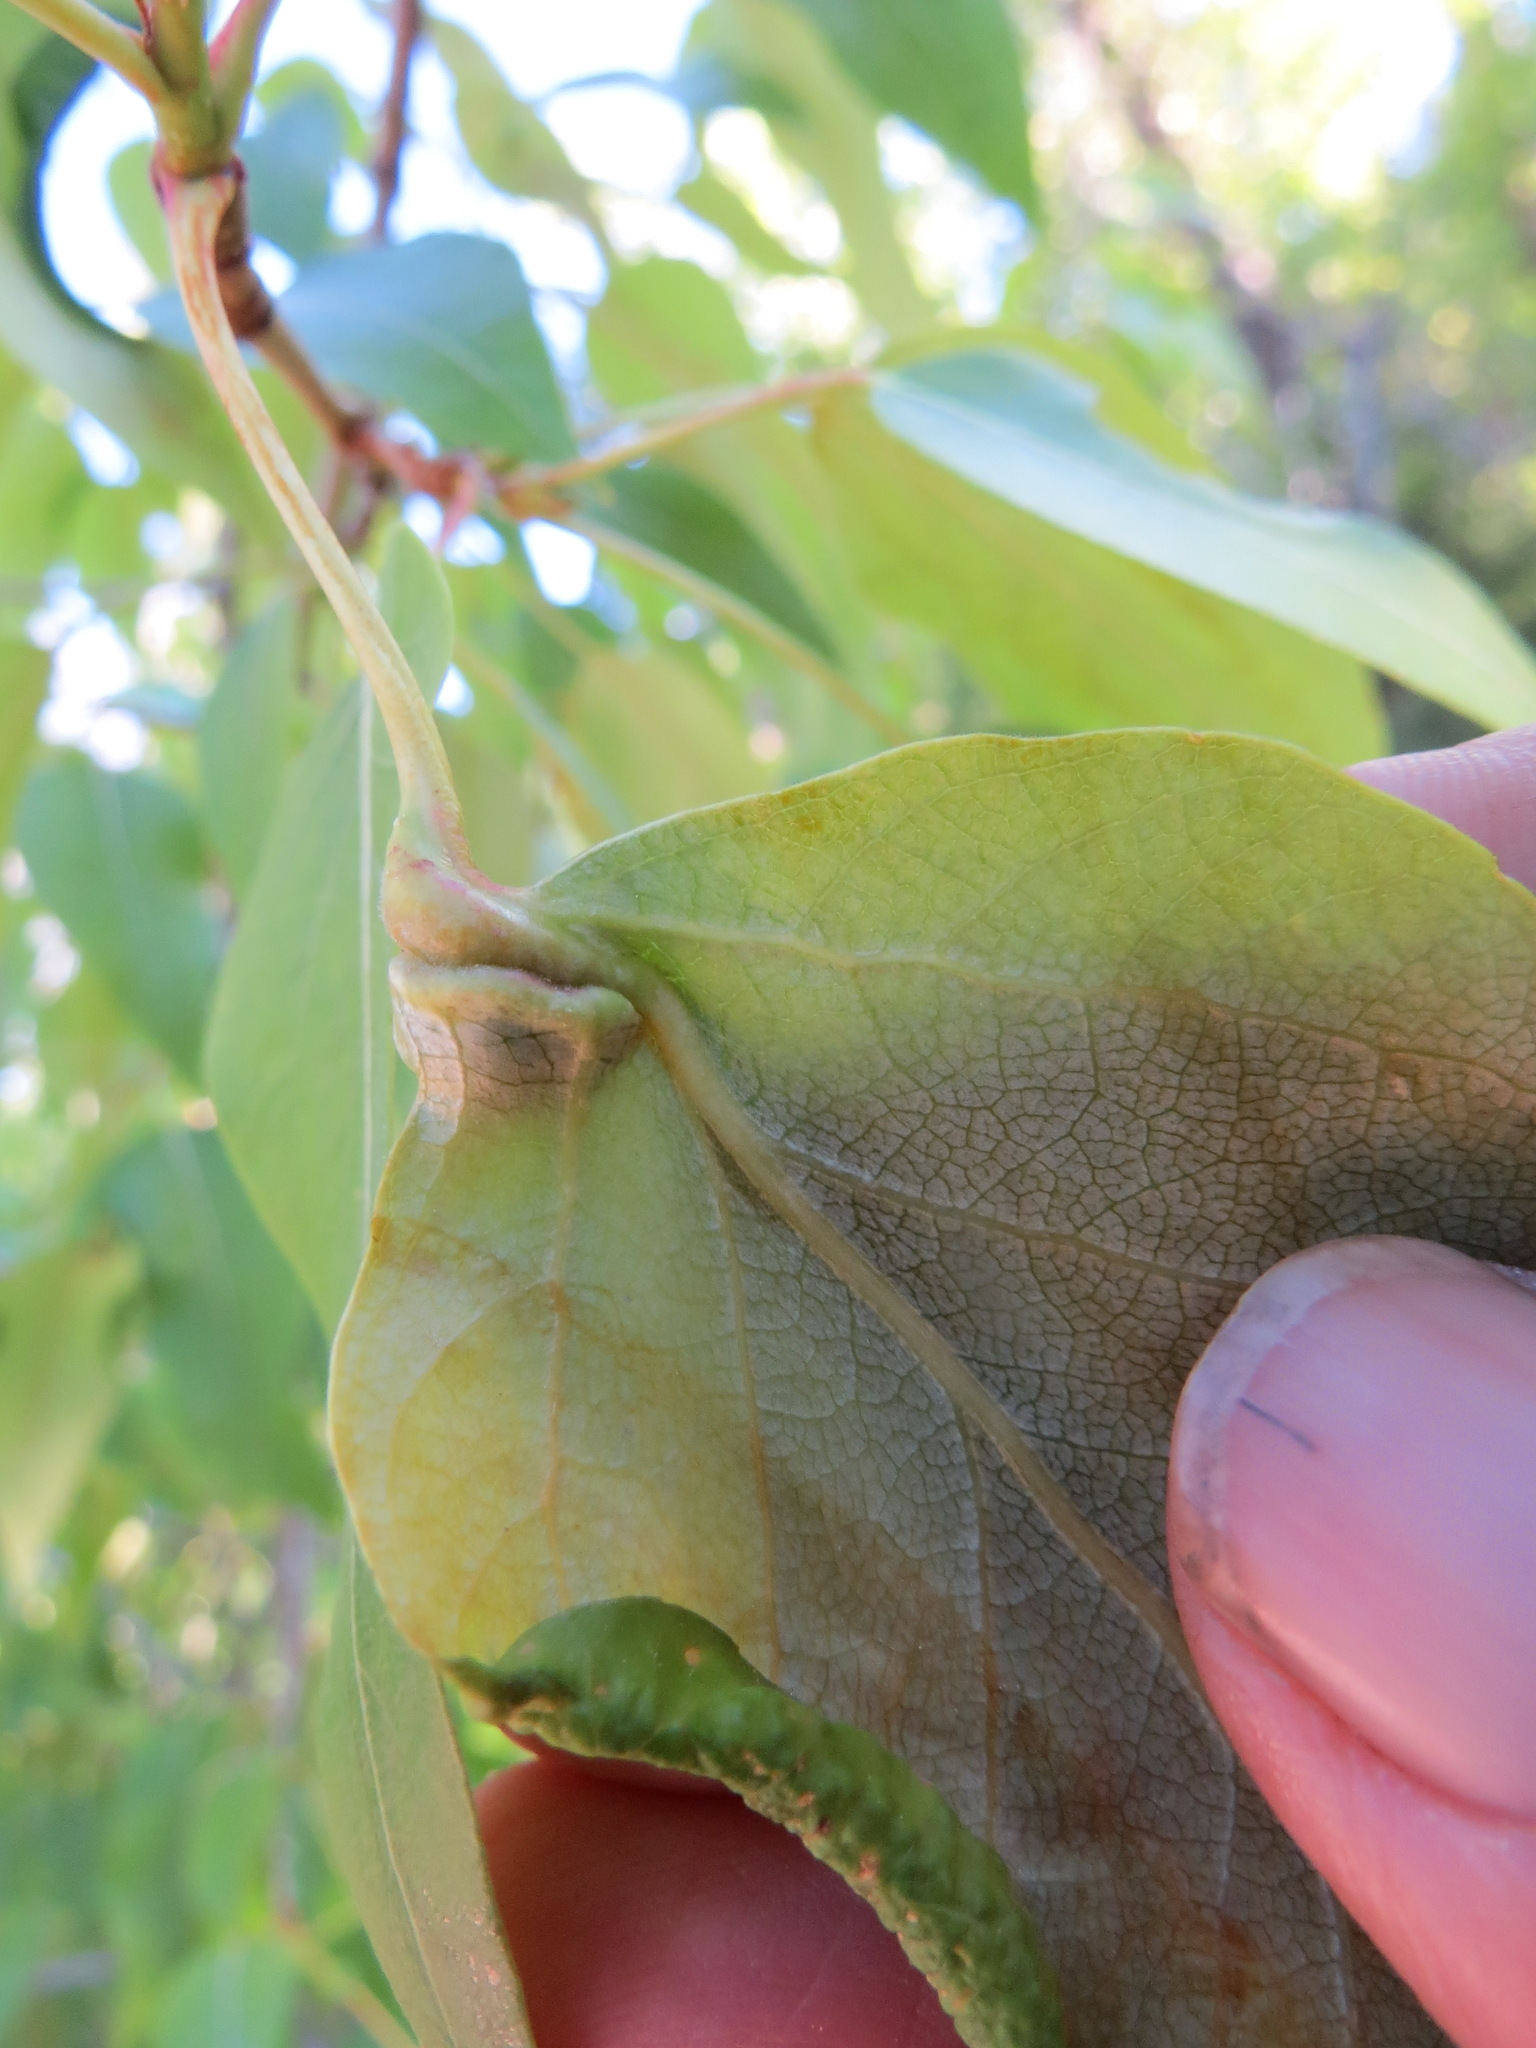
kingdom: Animalia
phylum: Arthropoda
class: Insecta
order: Hemiptera
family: Aphididae
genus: Pemphigus
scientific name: Pemphigus populi-globuli
